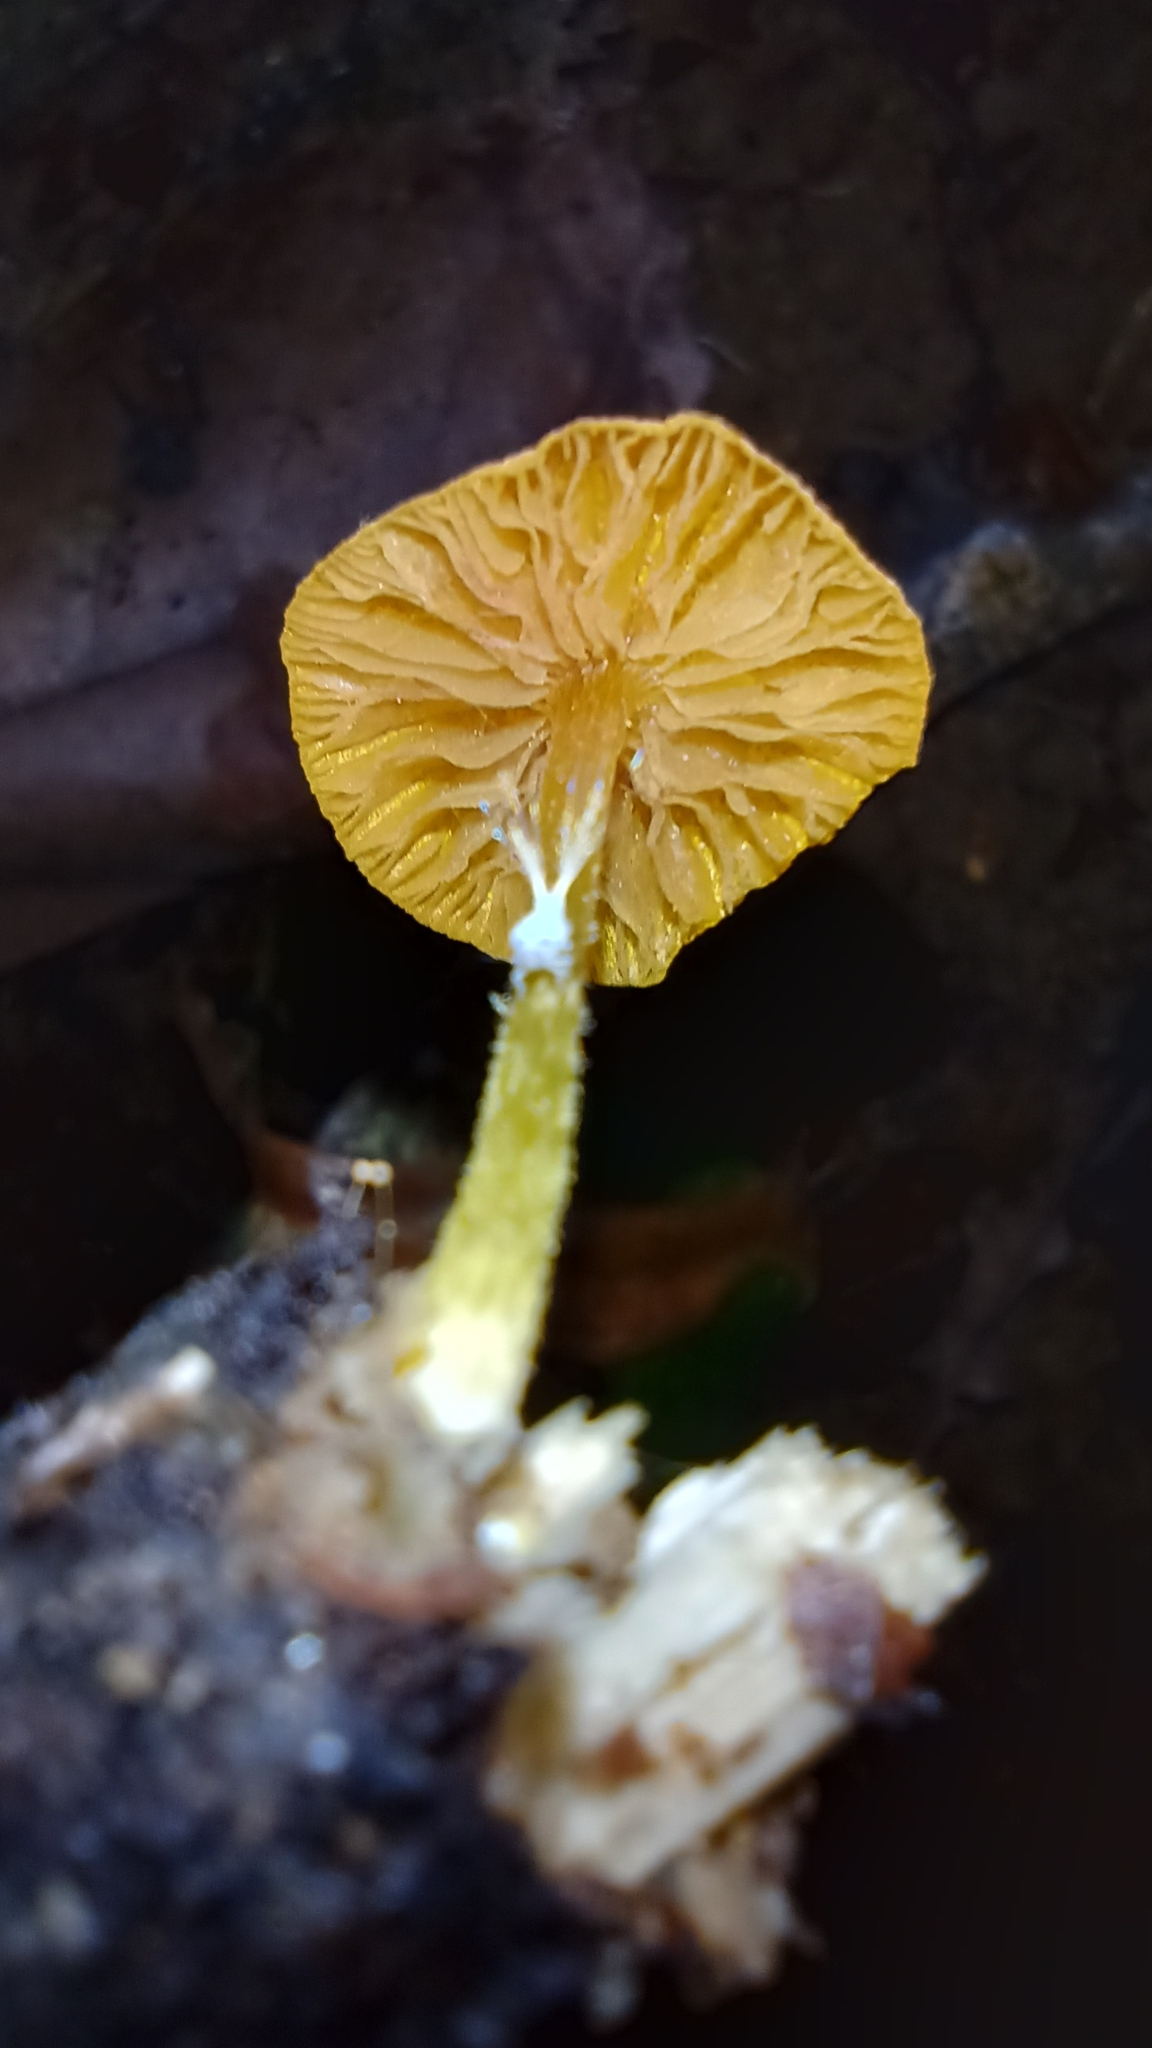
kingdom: Fungi
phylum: Basidiomycota
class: Agaricomycetes
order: Agaricales
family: Pluteaceae
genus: Pluteus
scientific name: Pluteus chrysophlebius
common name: Yellow deer mushroom
